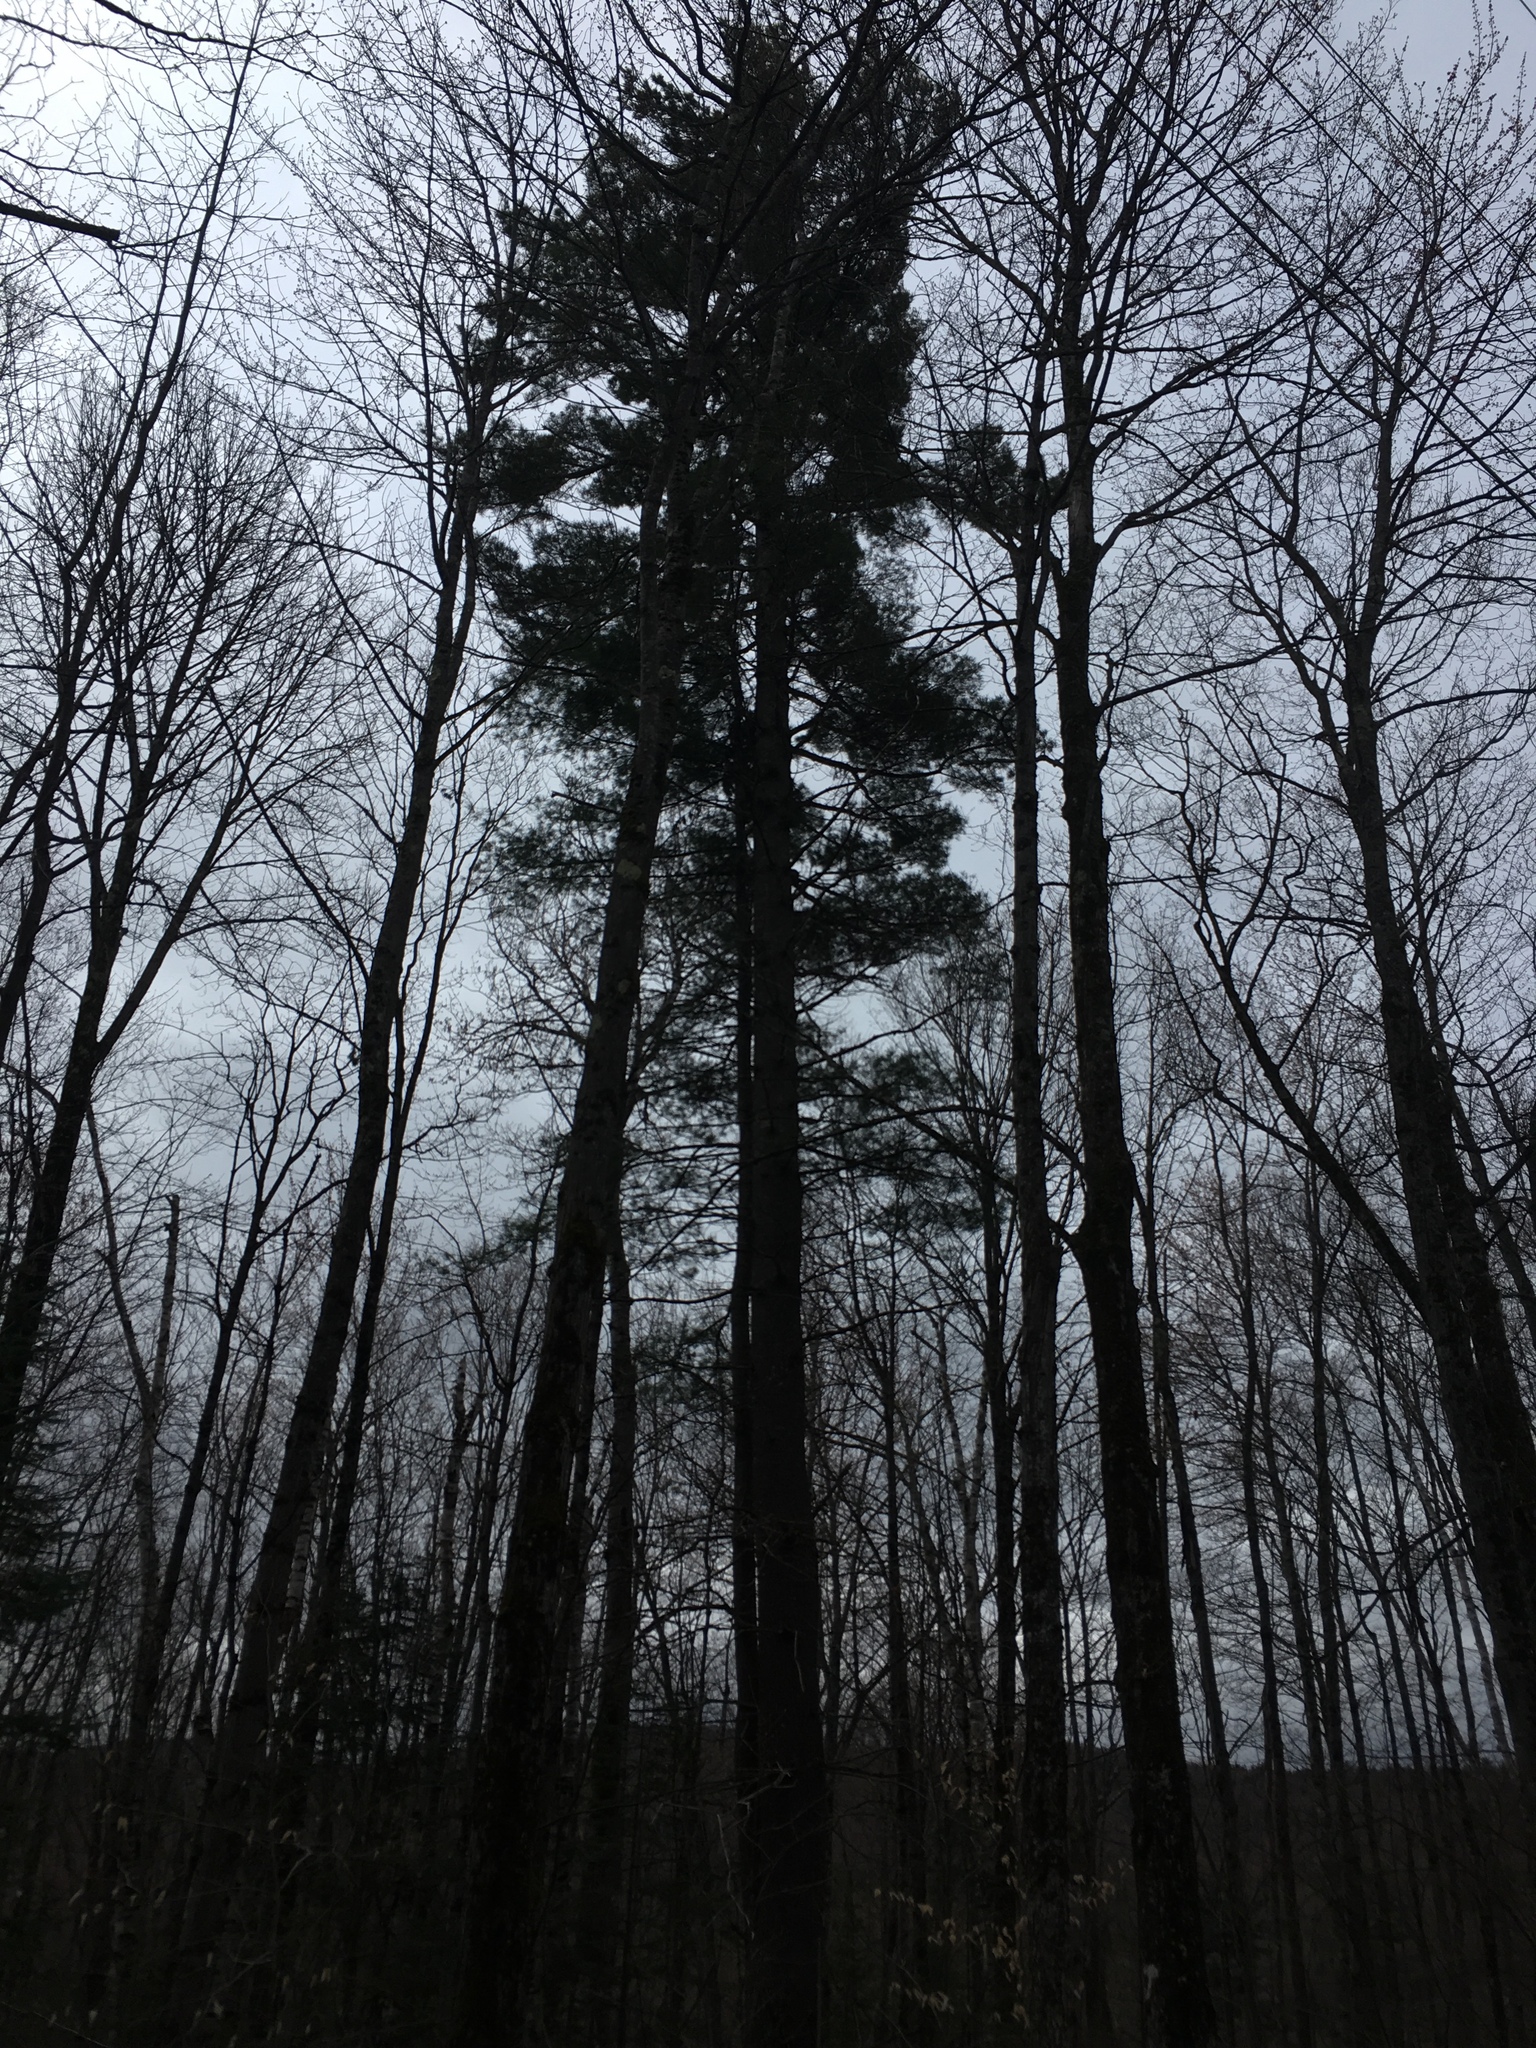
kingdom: Plantae
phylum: Tracheophyta
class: Pinopsida
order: Pinales
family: Pinaceae
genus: Pinus
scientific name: Pinus strobus
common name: Weymouth pine
